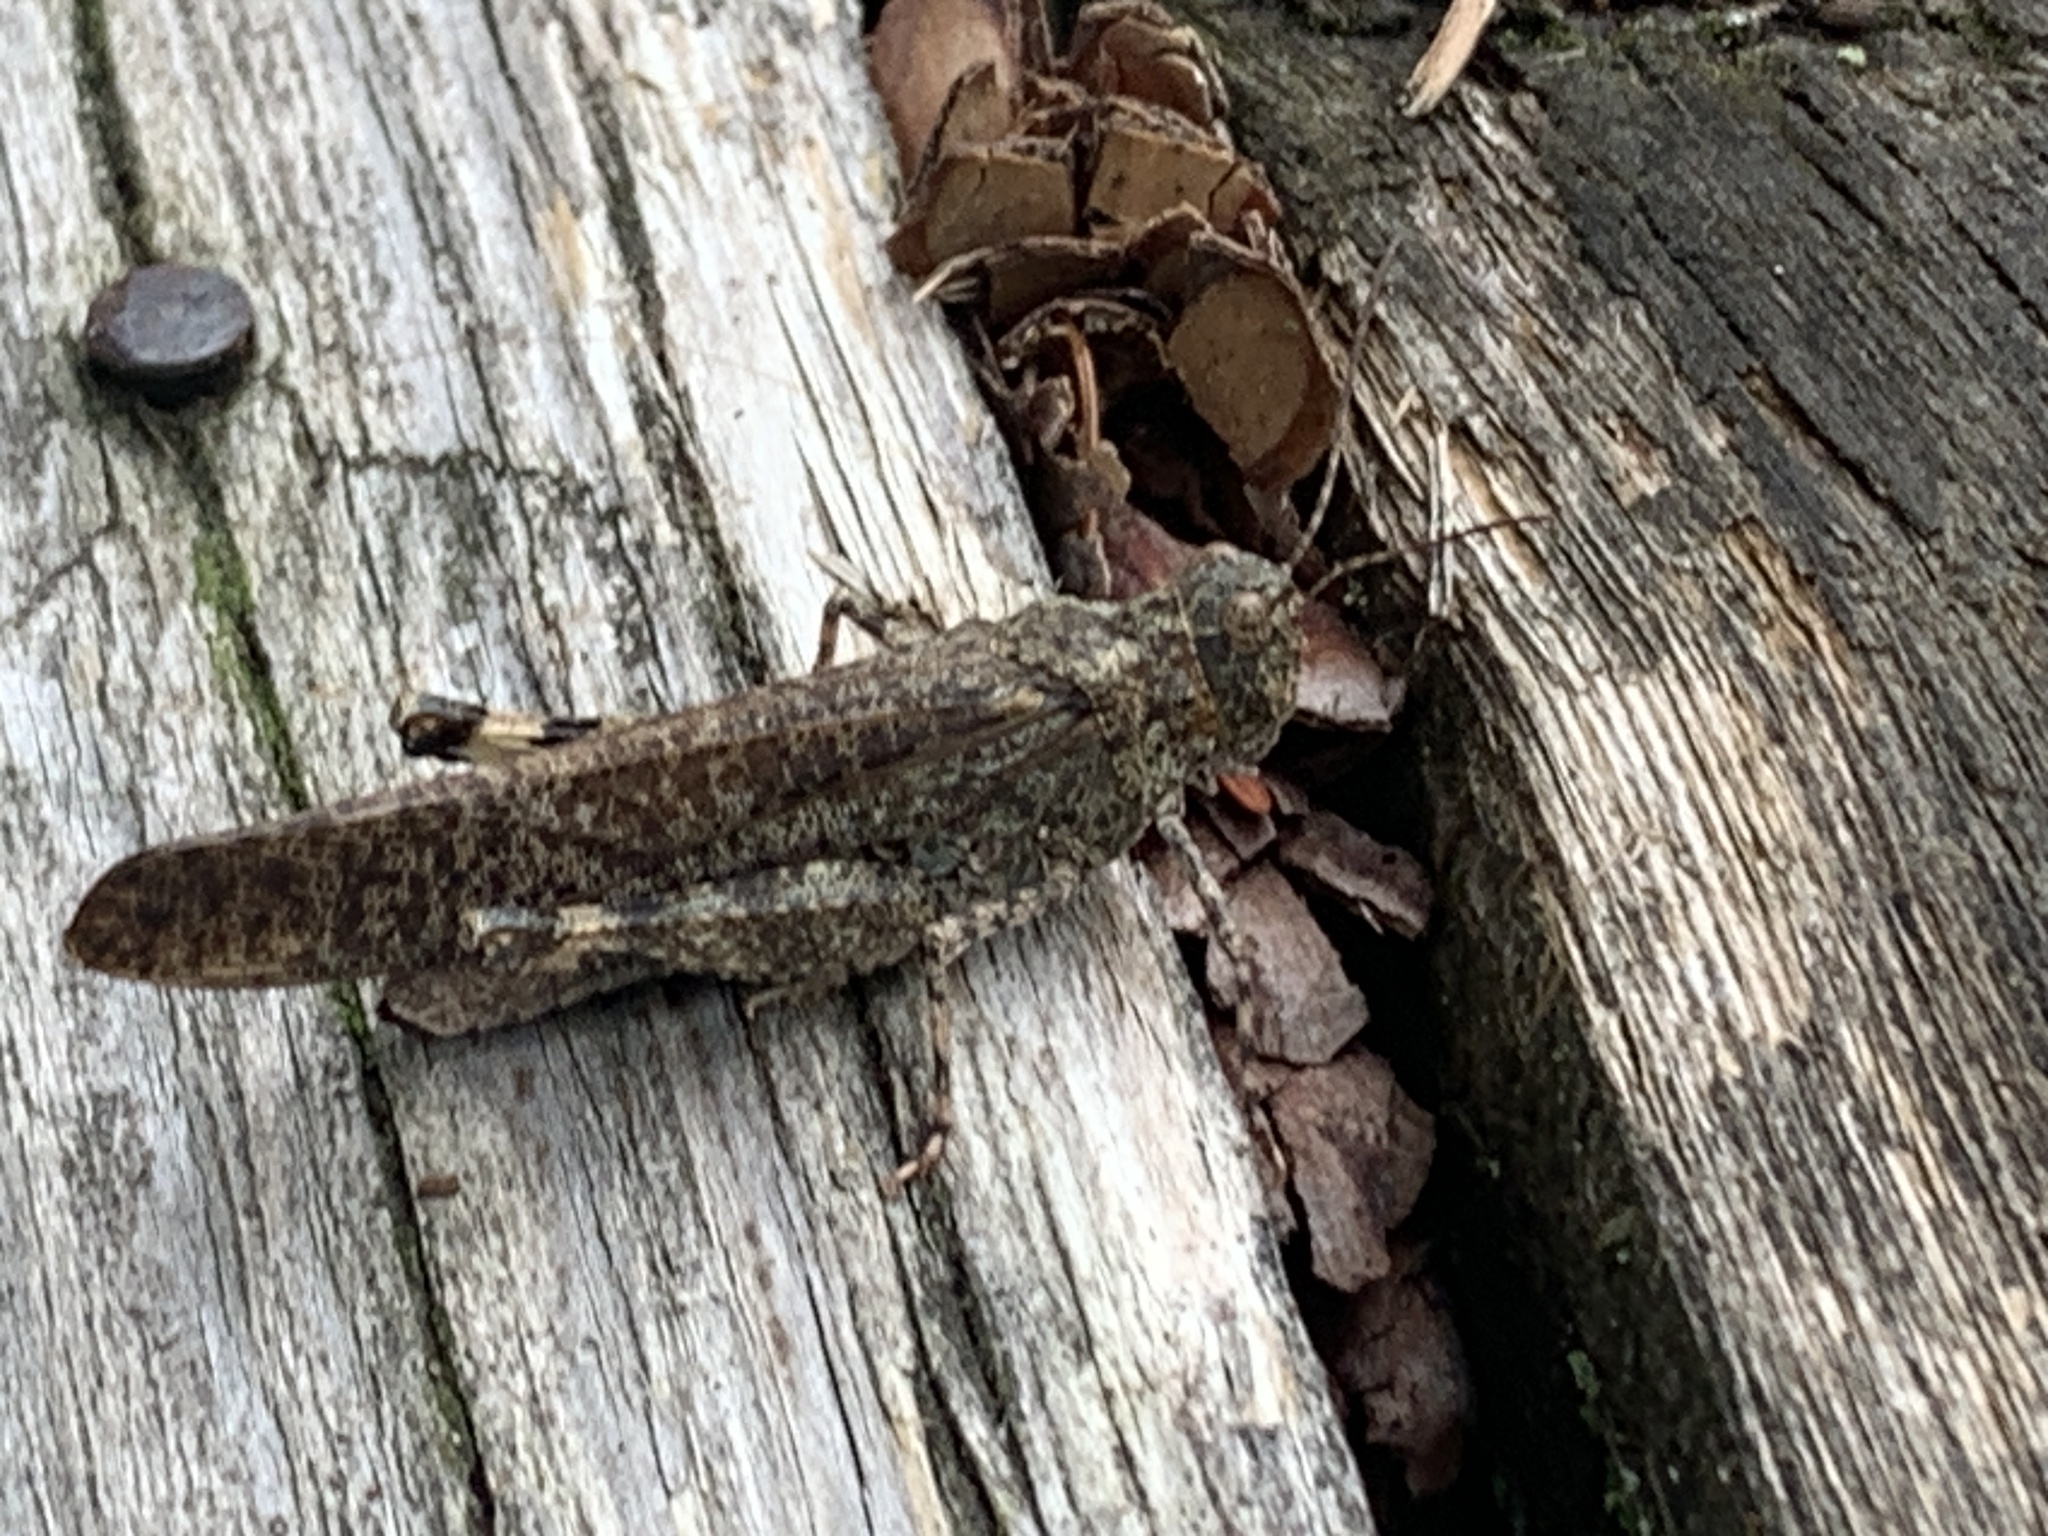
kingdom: Animalia
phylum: Arthropoda
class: Insecta
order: Orthoptera
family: Acrididae
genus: Trimerotropis
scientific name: Trimerotropis verruculata
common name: Crackling forest grasshopper
